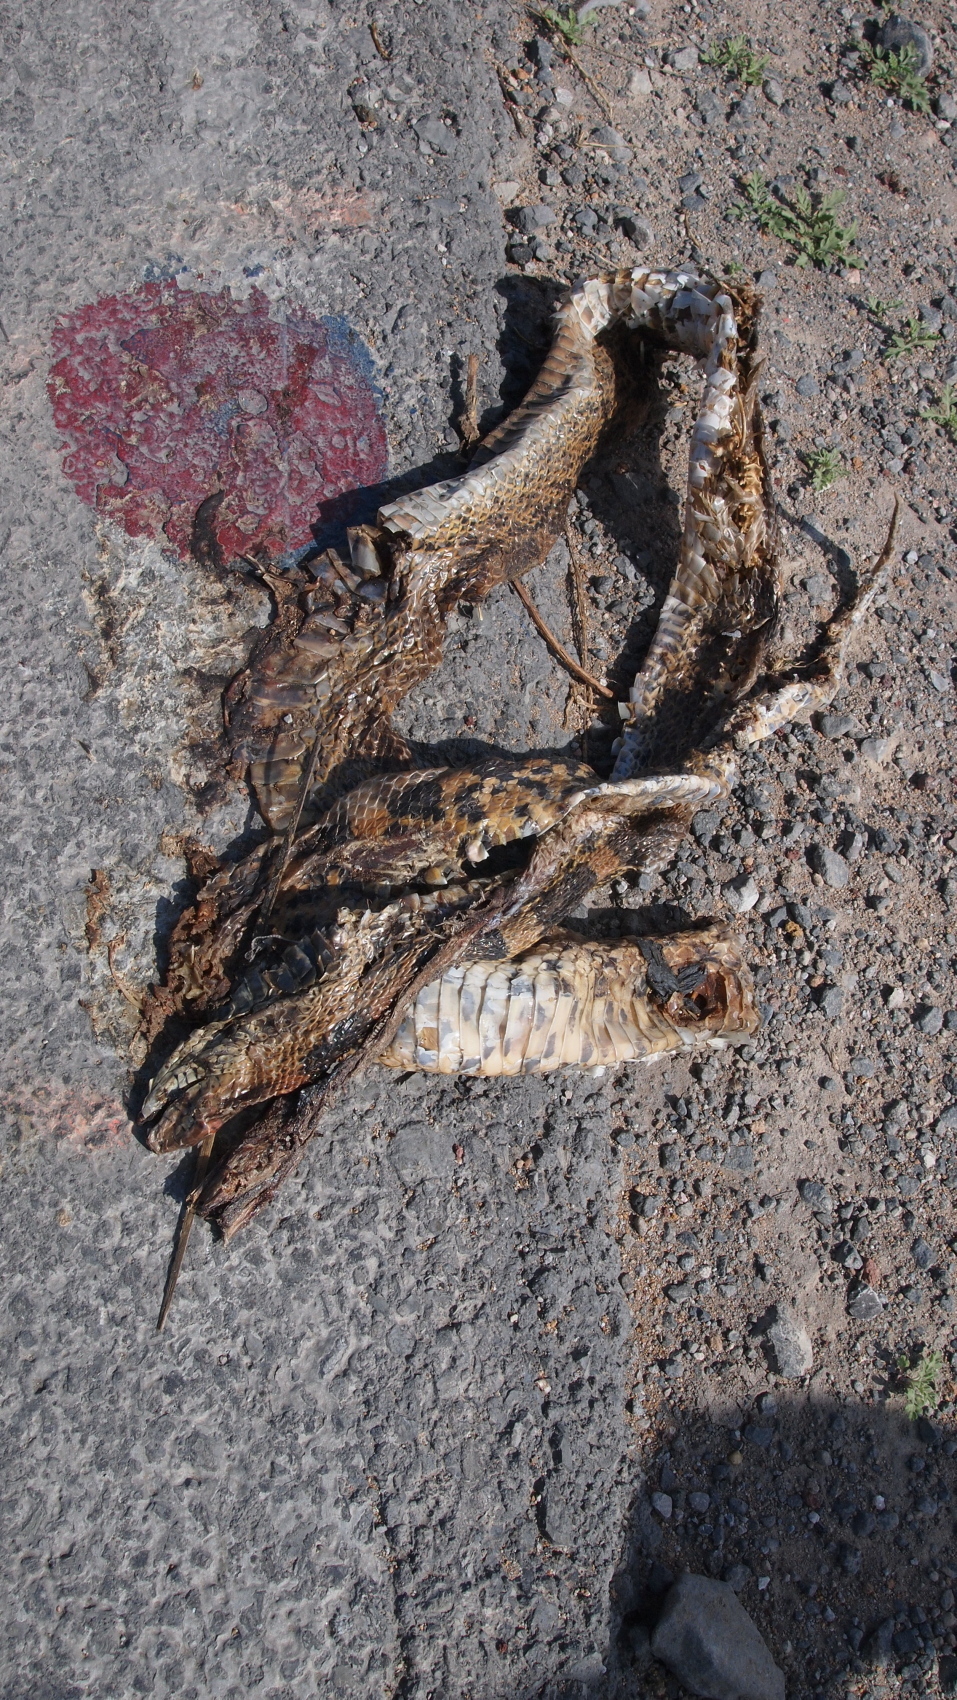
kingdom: Animalia
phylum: Chordata
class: Squamata
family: Colubridae
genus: Pituophis
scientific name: Pituophis deppei
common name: Mexican bull snake
